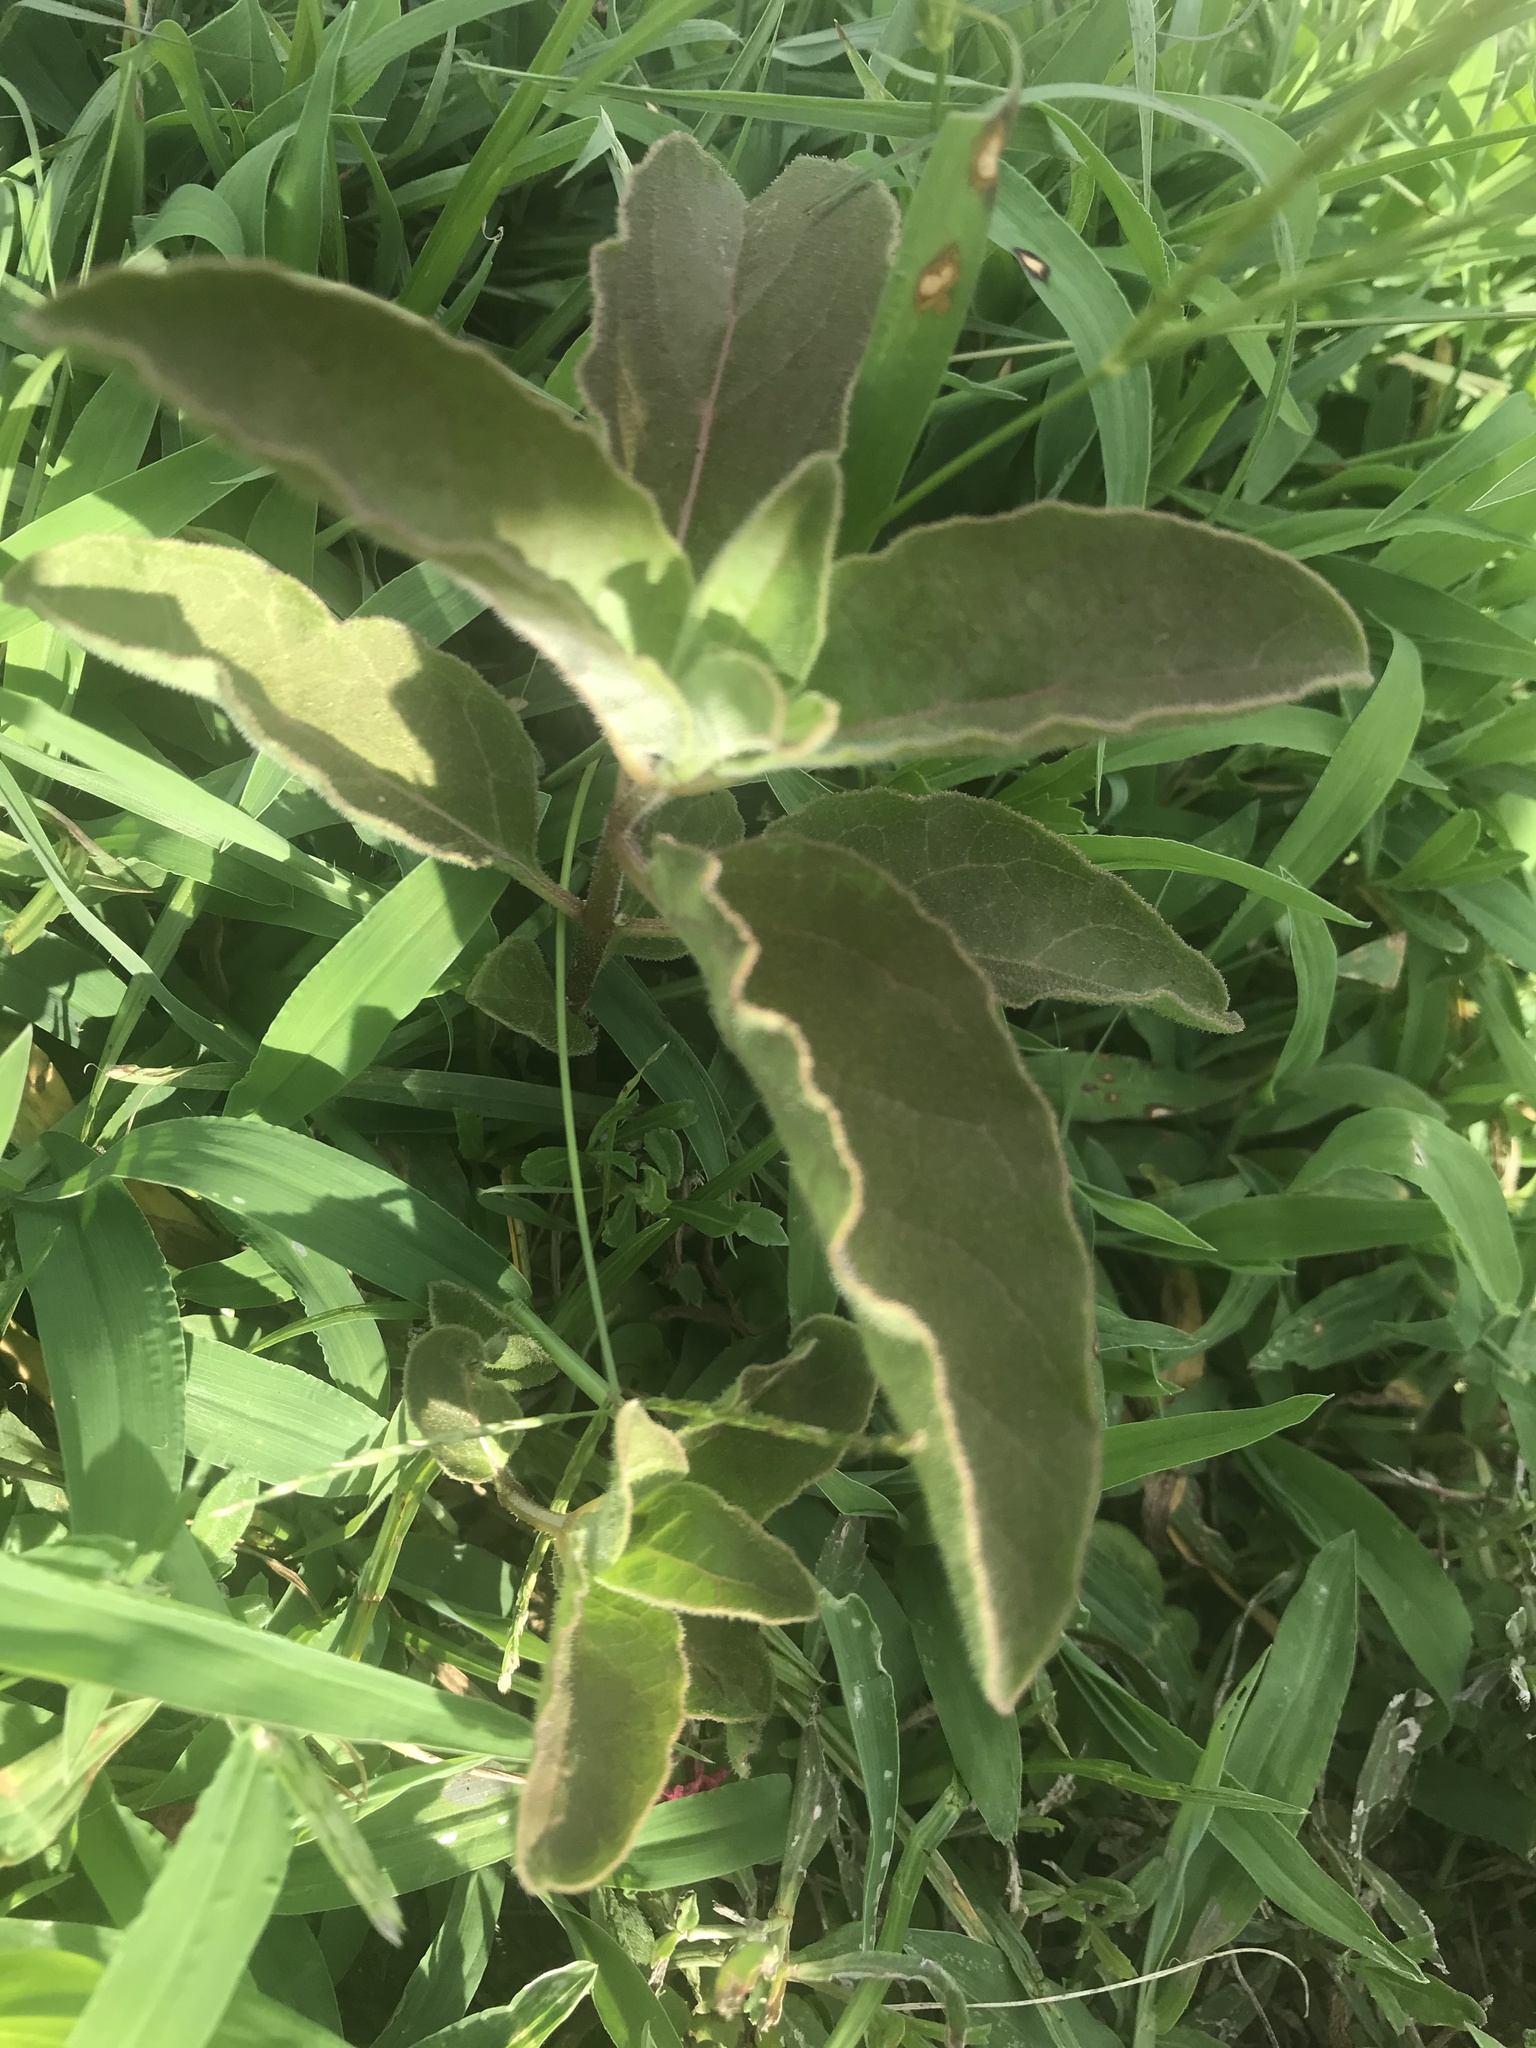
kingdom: Plantae
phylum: Tracheophyta
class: Magnoliopsida
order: Gentianales
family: Apocynaceae
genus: Asclepias
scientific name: Asclepias oenotheroides
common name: Zizotes milkweed
